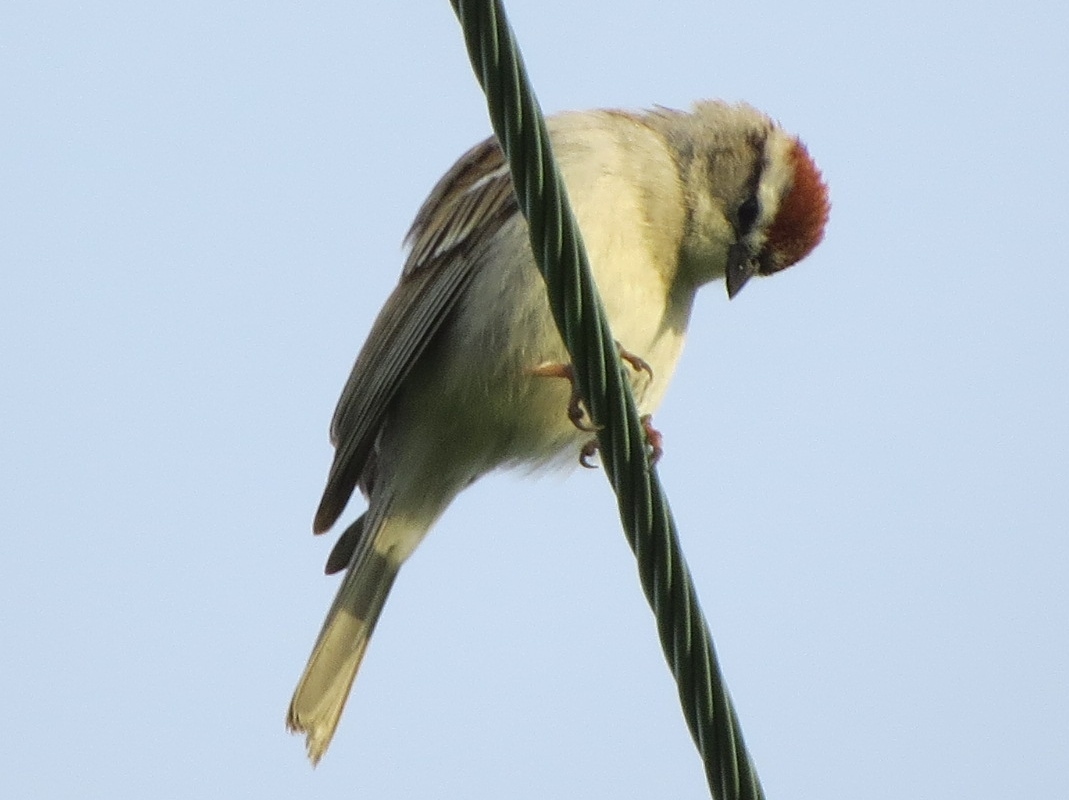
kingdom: Animalia
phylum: Chordata
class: Aves
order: Passeriformes
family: Passerellidae
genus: Spizella
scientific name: Spizella passerina
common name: Chipping sparrow
